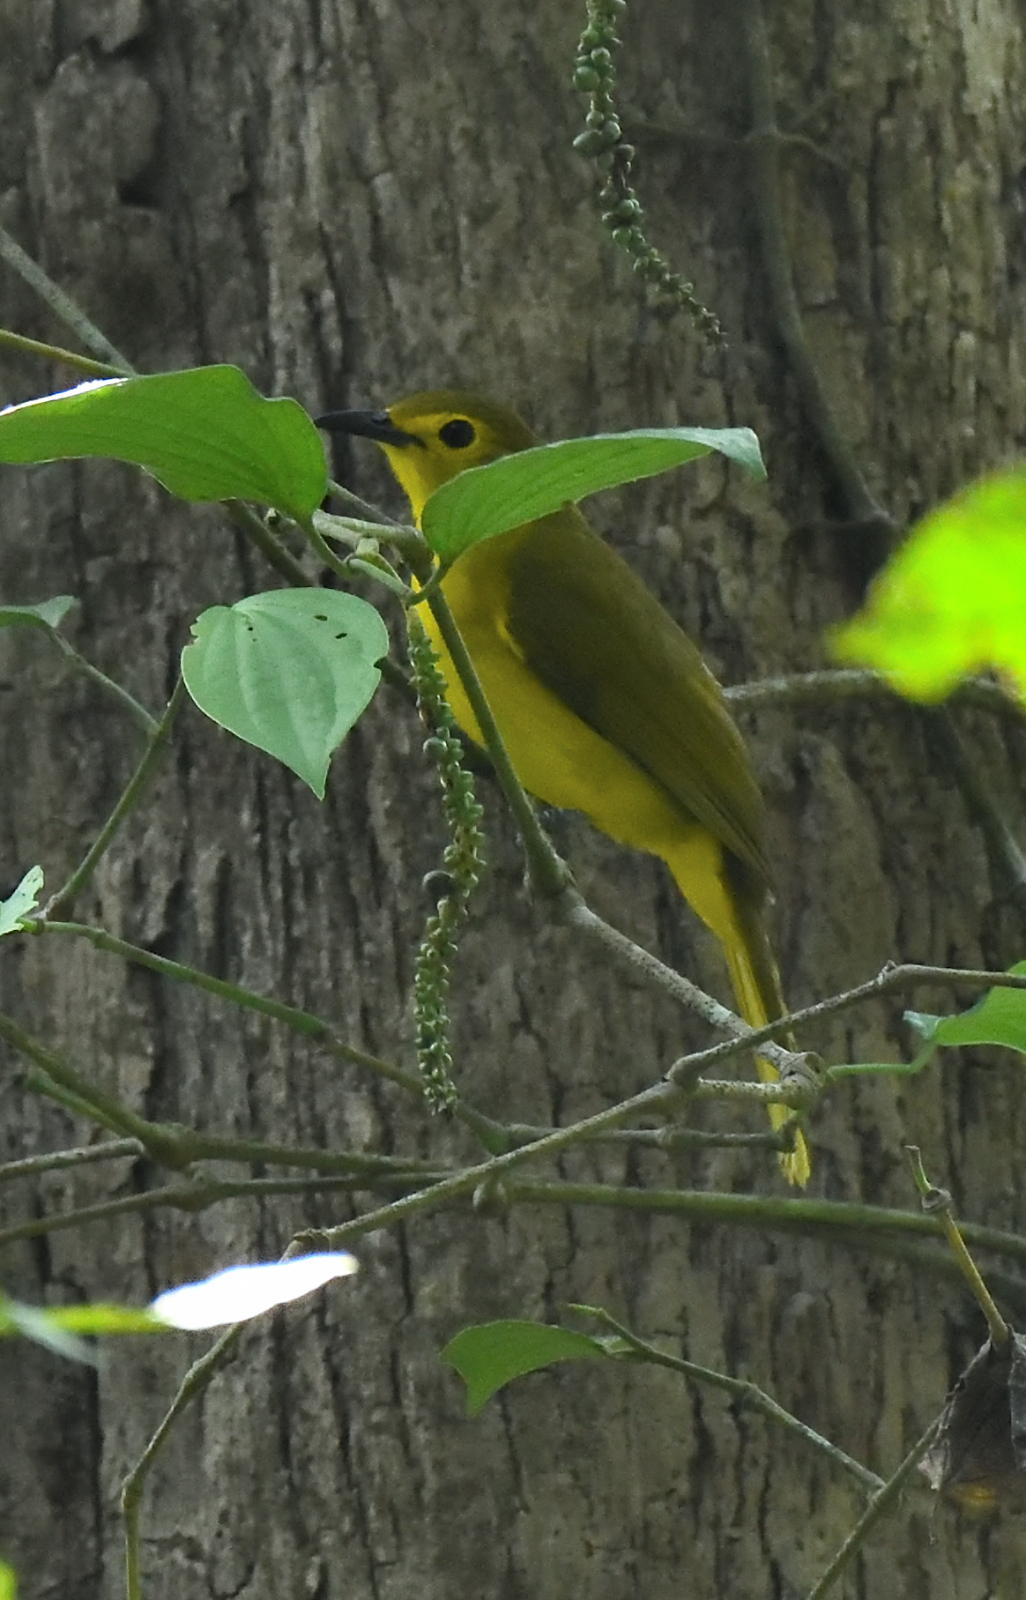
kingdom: Animalia
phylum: Chordata
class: Aves
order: Passeriformes
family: Pycnonotidae
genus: Acritillas
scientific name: Acritillas indica
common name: Yellow-browed bulbul
